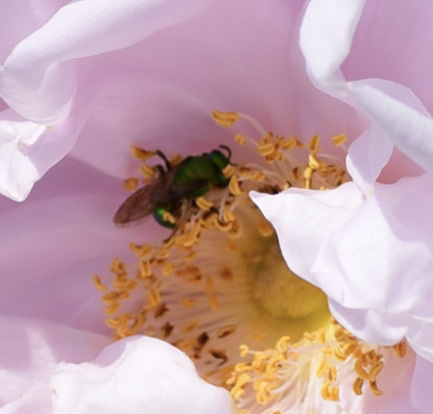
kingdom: Animalia
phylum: Arthropoda
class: Insecta
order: Hymenoptera
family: Halictidae
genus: Augochlora
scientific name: Augochlora pura
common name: Pure green sweat bee
